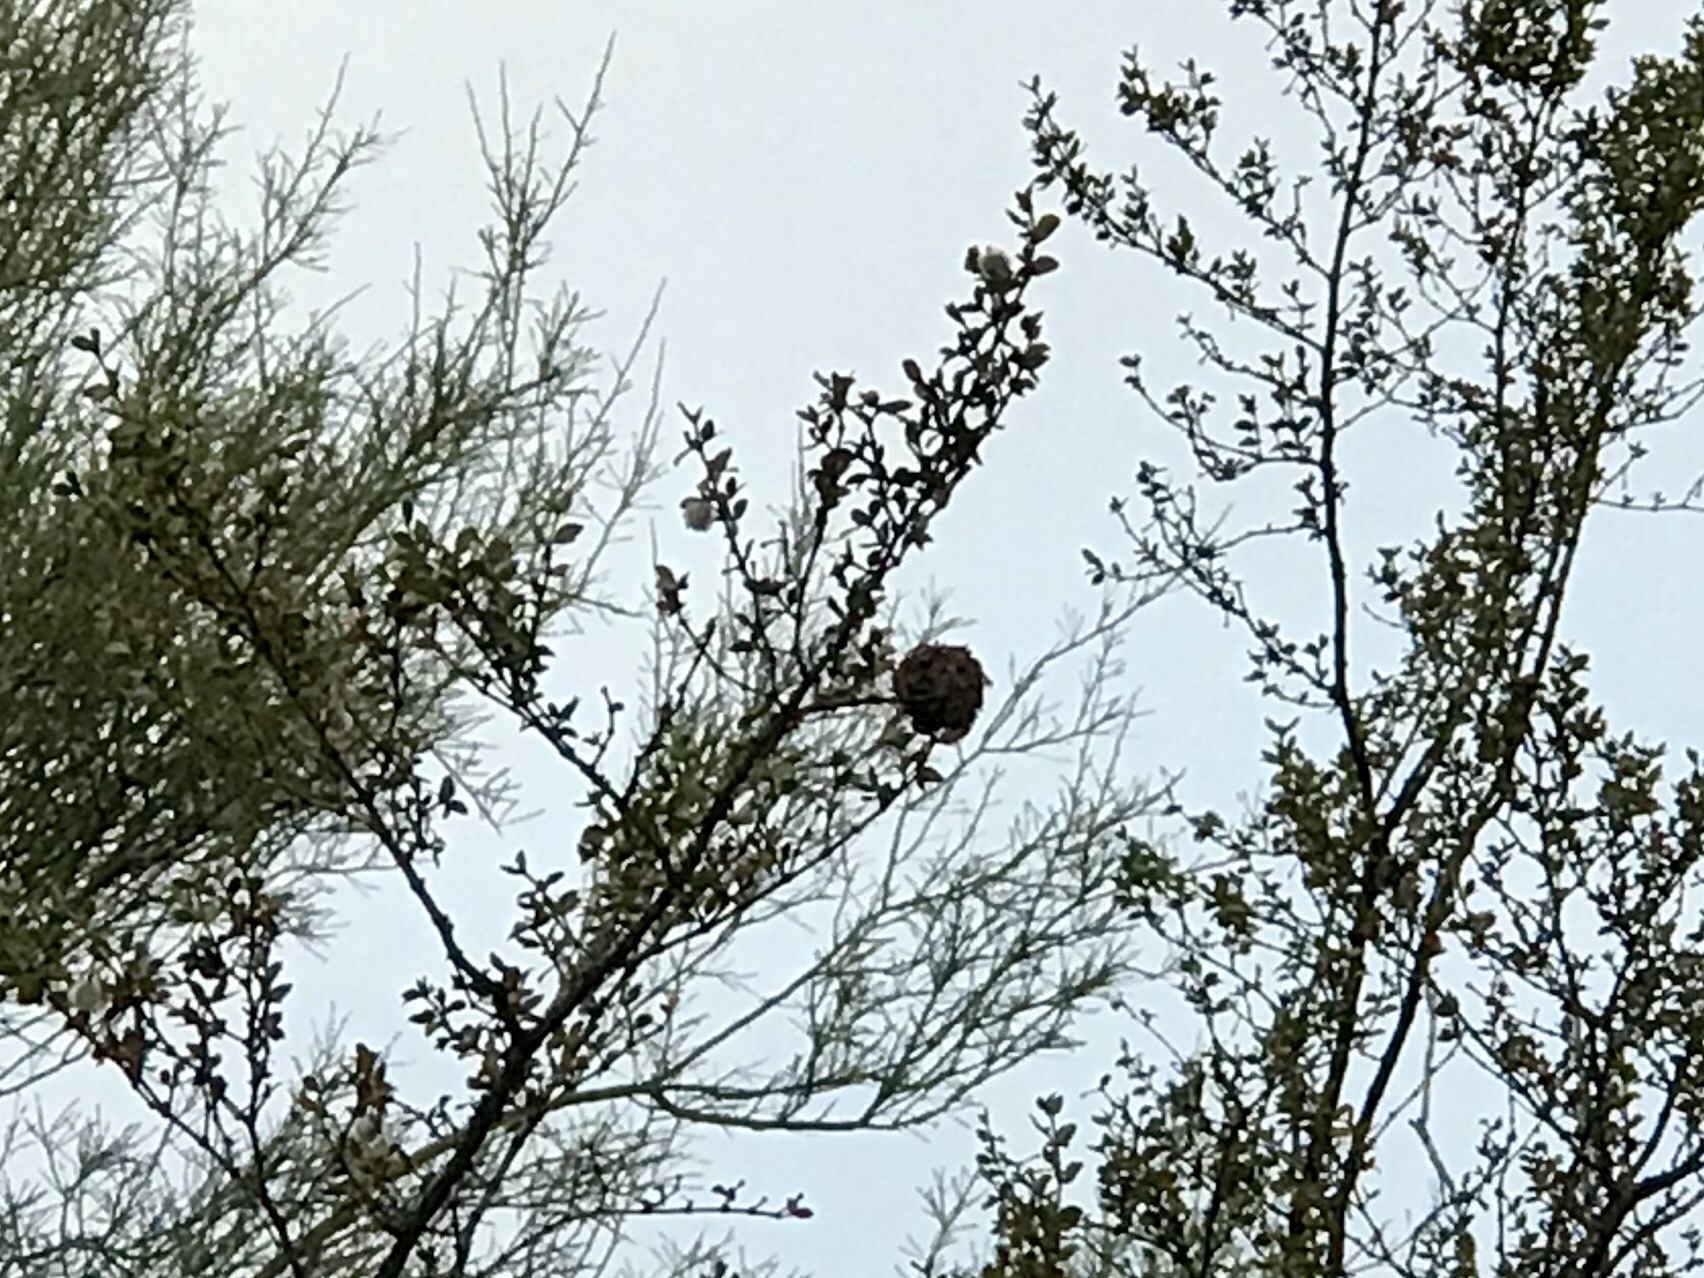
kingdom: Animalia
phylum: Arthropoda
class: Insecta
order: Diptera
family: Cecidomyiidae
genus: Asphondylia
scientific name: Asphondylia auripila
